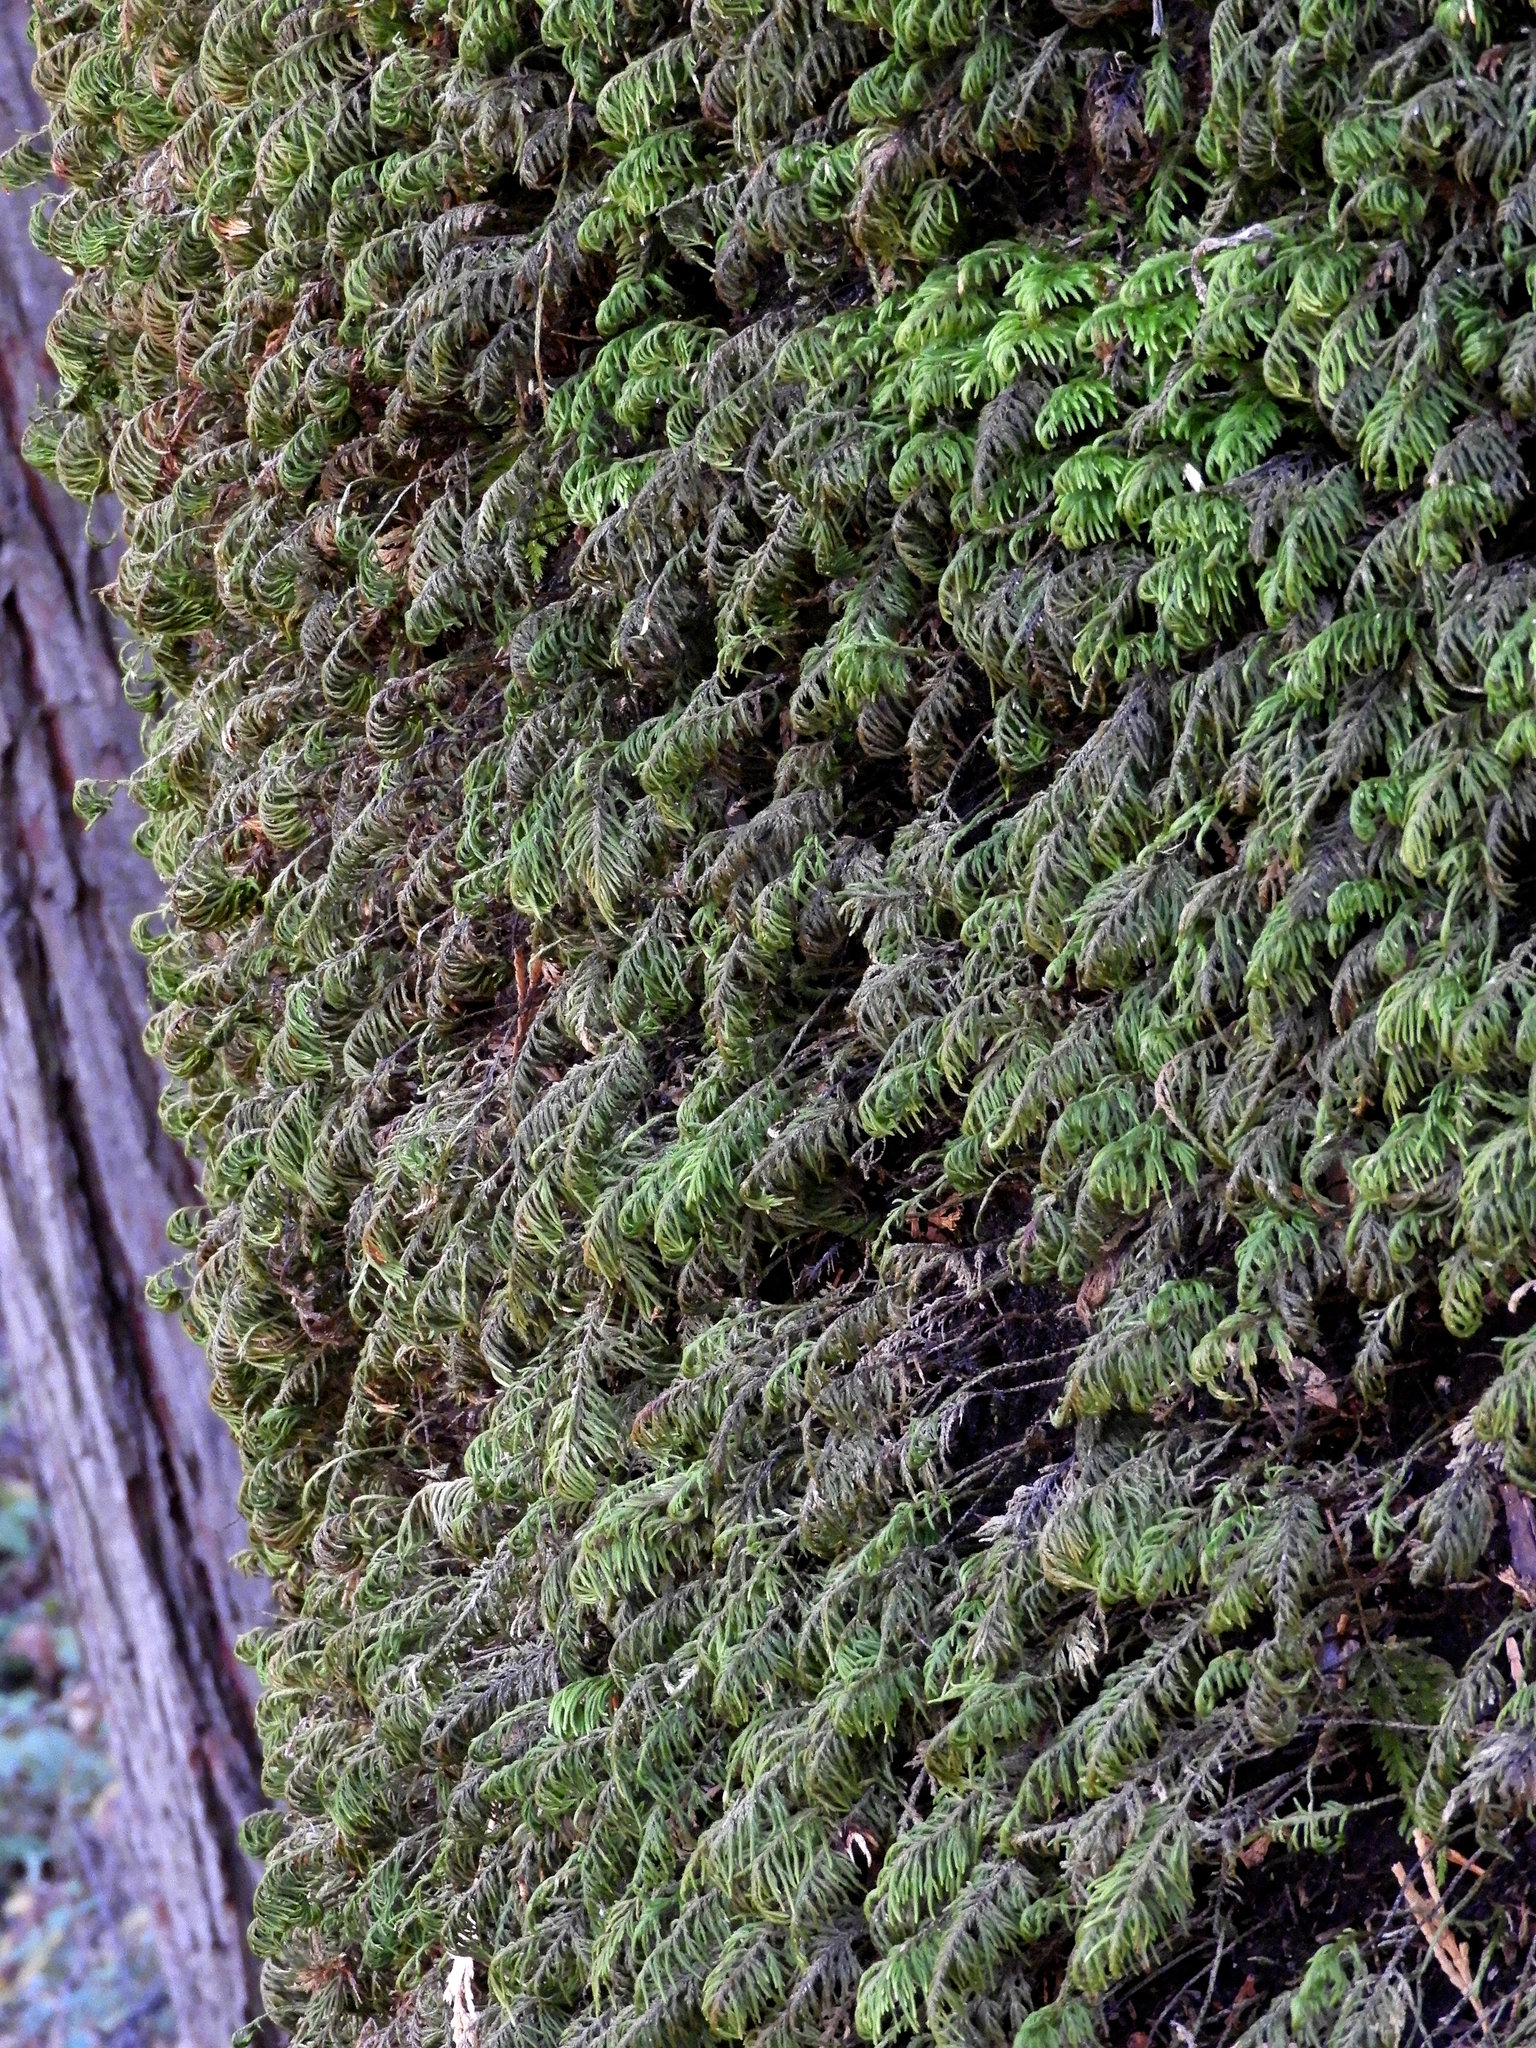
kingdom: Plantae
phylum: Bryophyta
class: Bryopsida
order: Hypnales
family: Cryphaeaceae
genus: Dendroalsia
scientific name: Dendroalsia abietina
